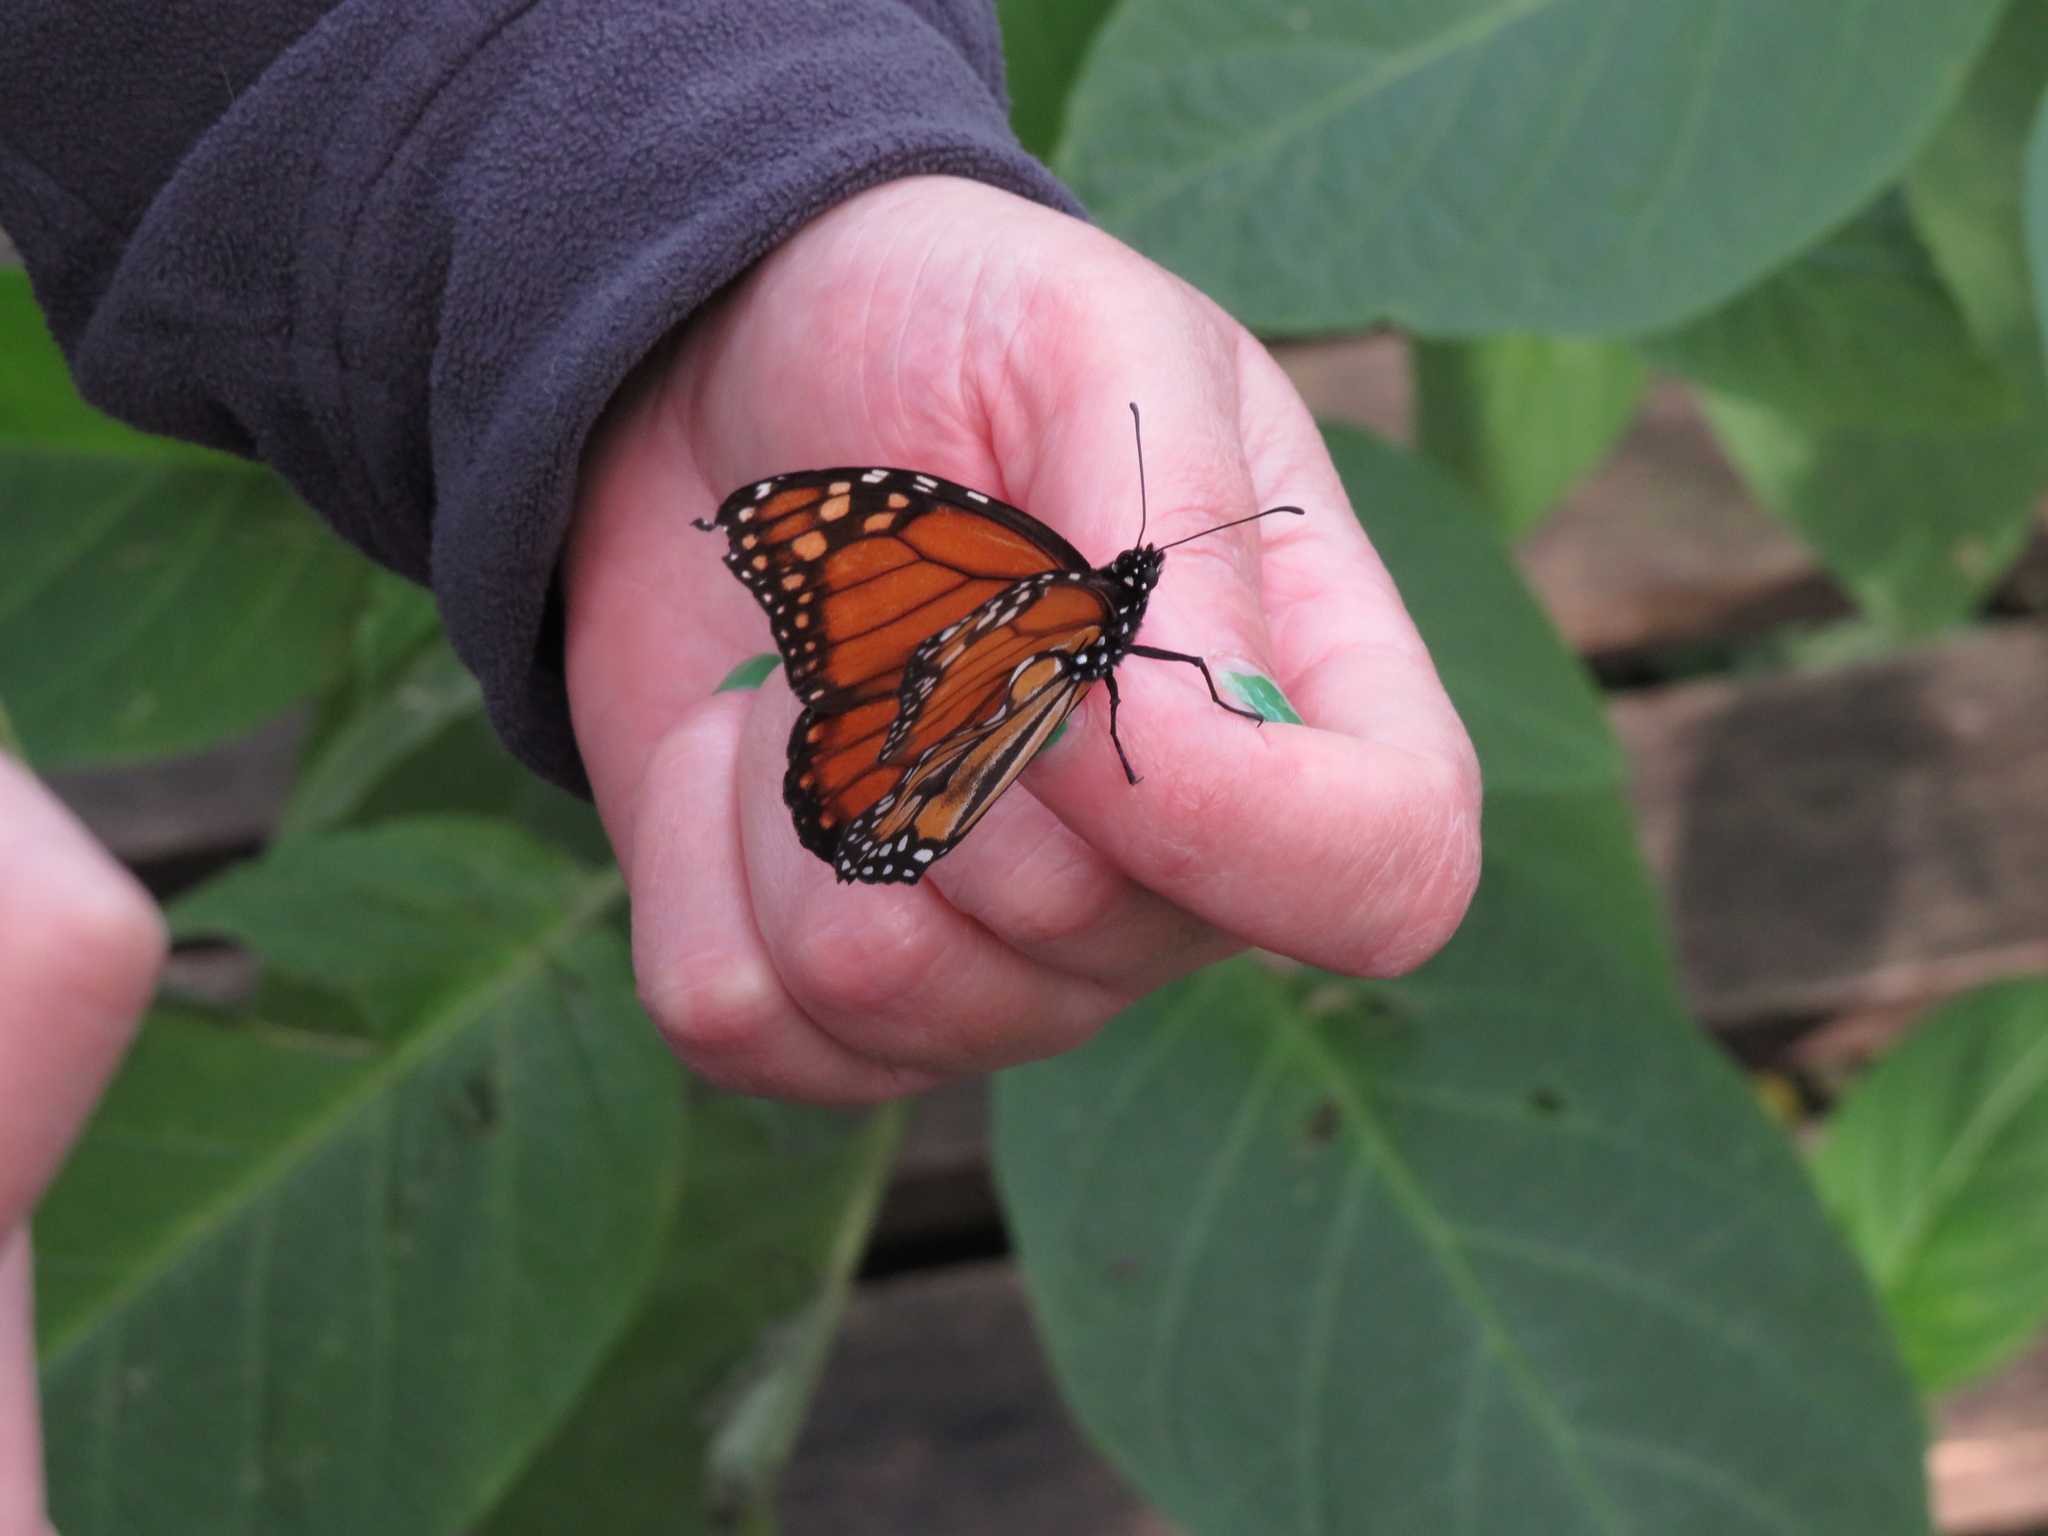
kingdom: Animalia
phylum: Arthropoda
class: Insecta
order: Lepidoptera
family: Nymphalidae
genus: Danaus
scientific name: Danaus erippus
